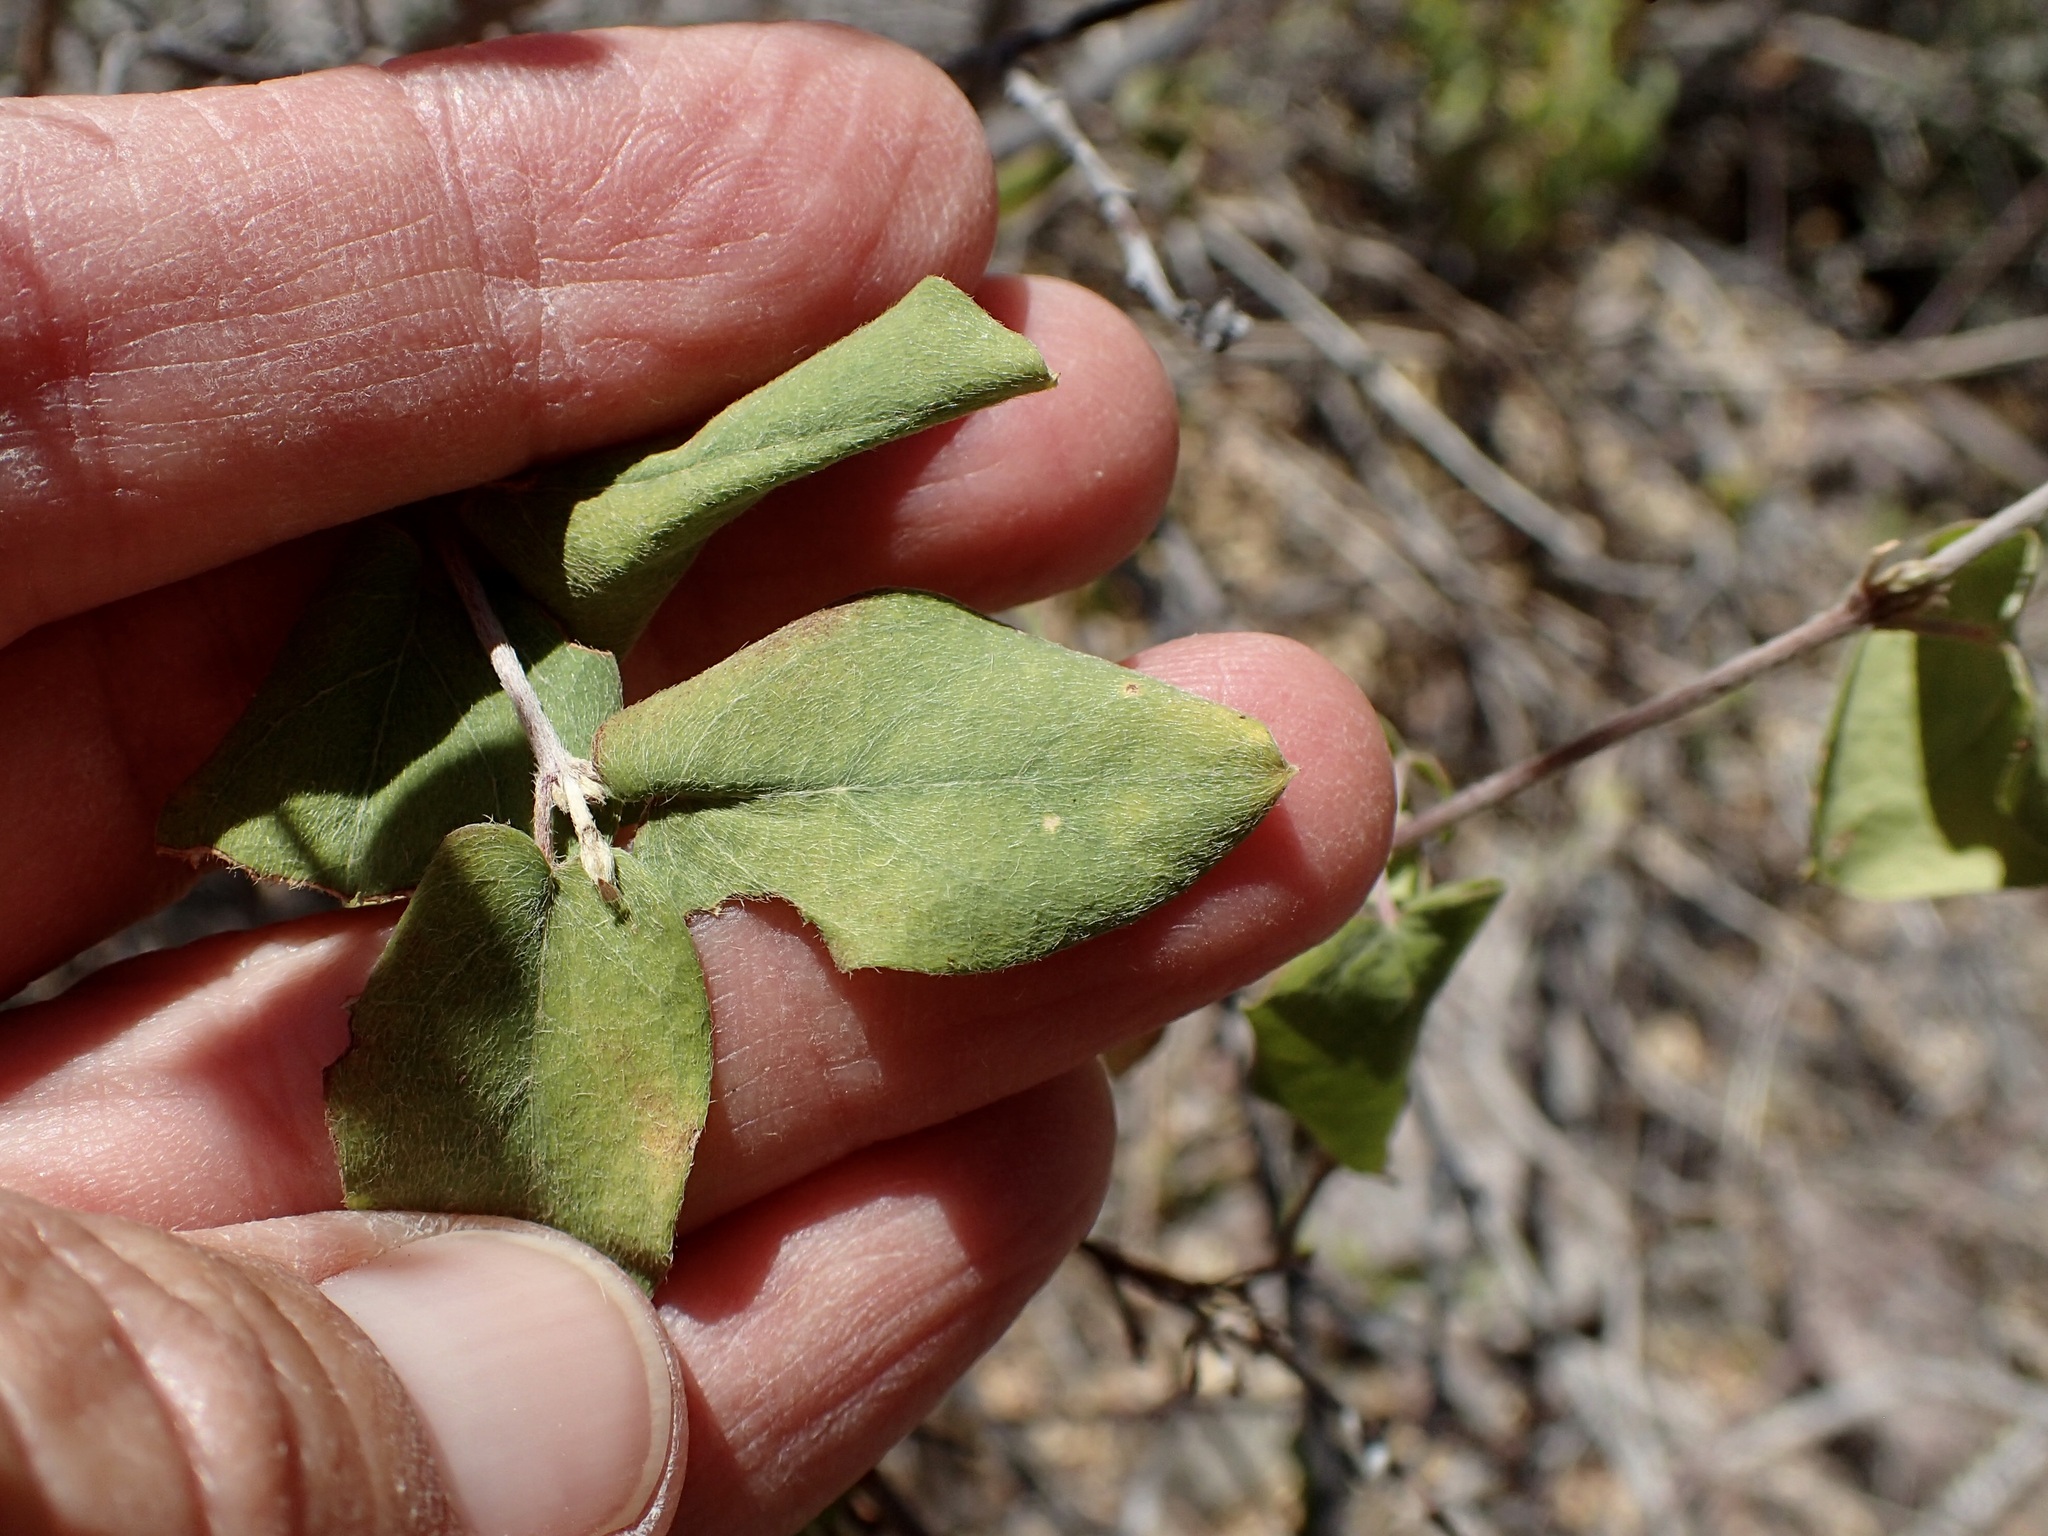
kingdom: Plantae
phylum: Tracheophyta
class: Magnoliopsida
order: Malpighiales
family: Malpighiaceae
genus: Cottsia
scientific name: Cottsia californica
